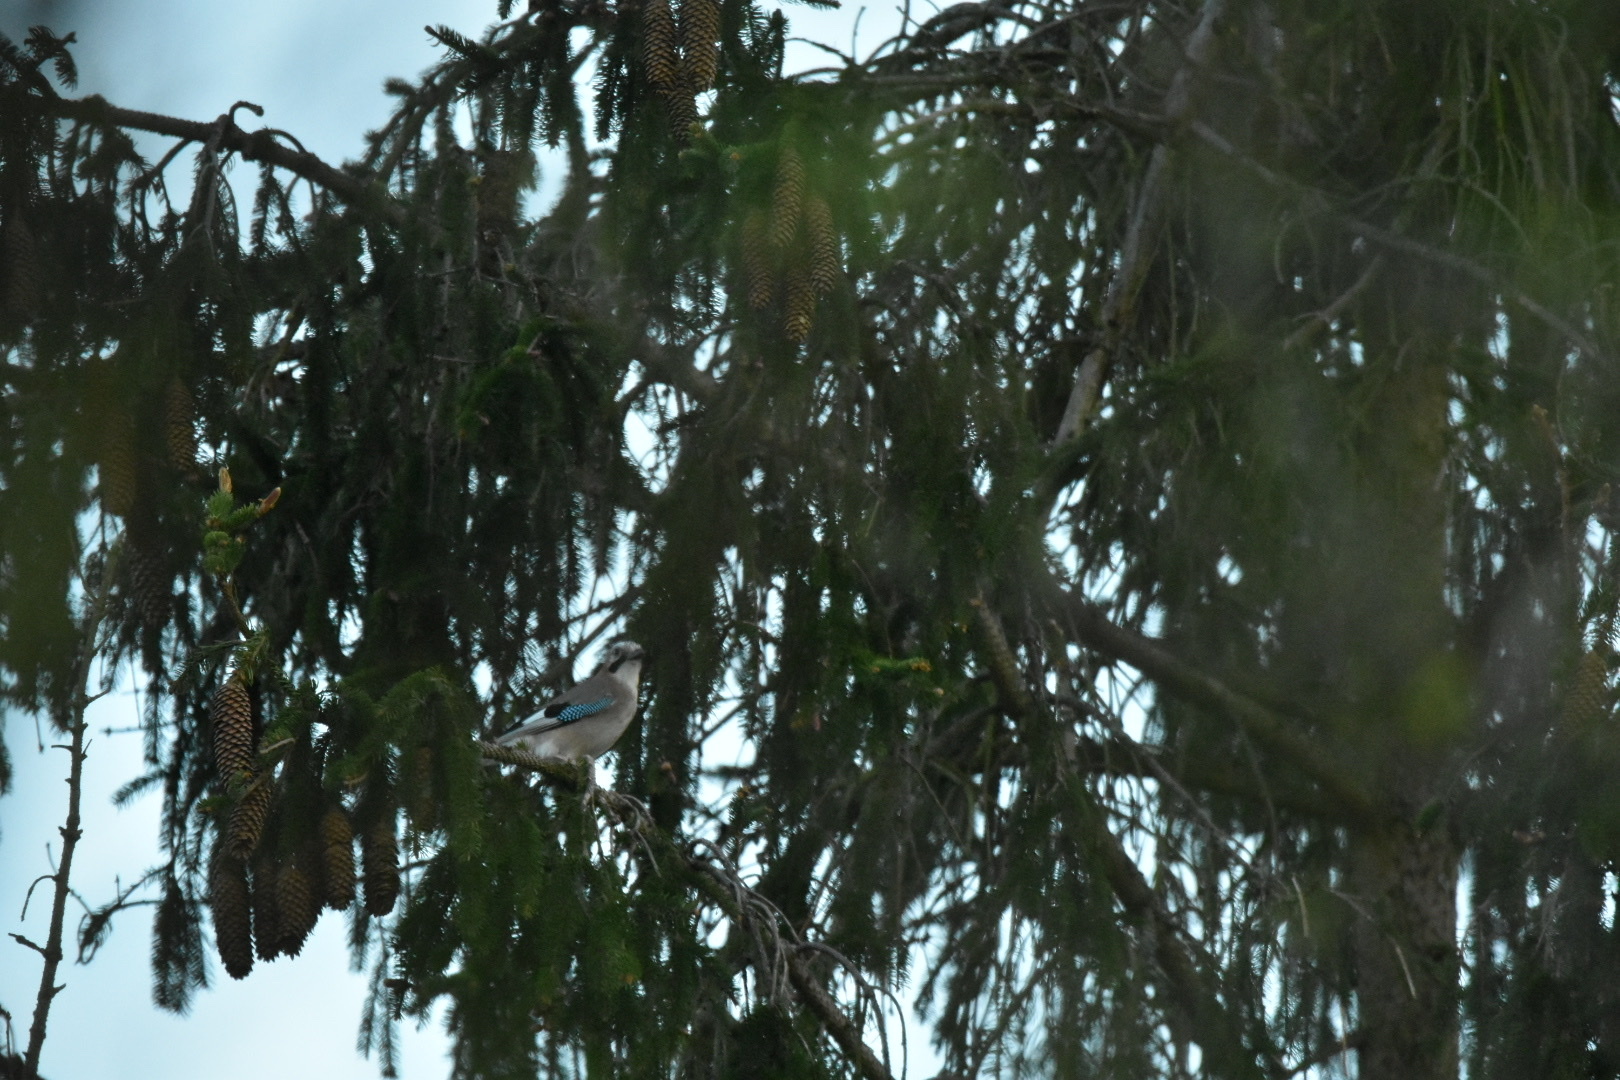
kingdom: Animalia
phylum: Chordata
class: Aves
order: Passeriformes
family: Corvidae
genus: Garrulus
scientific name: Garrulus glandarius
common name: Eurasian jay
